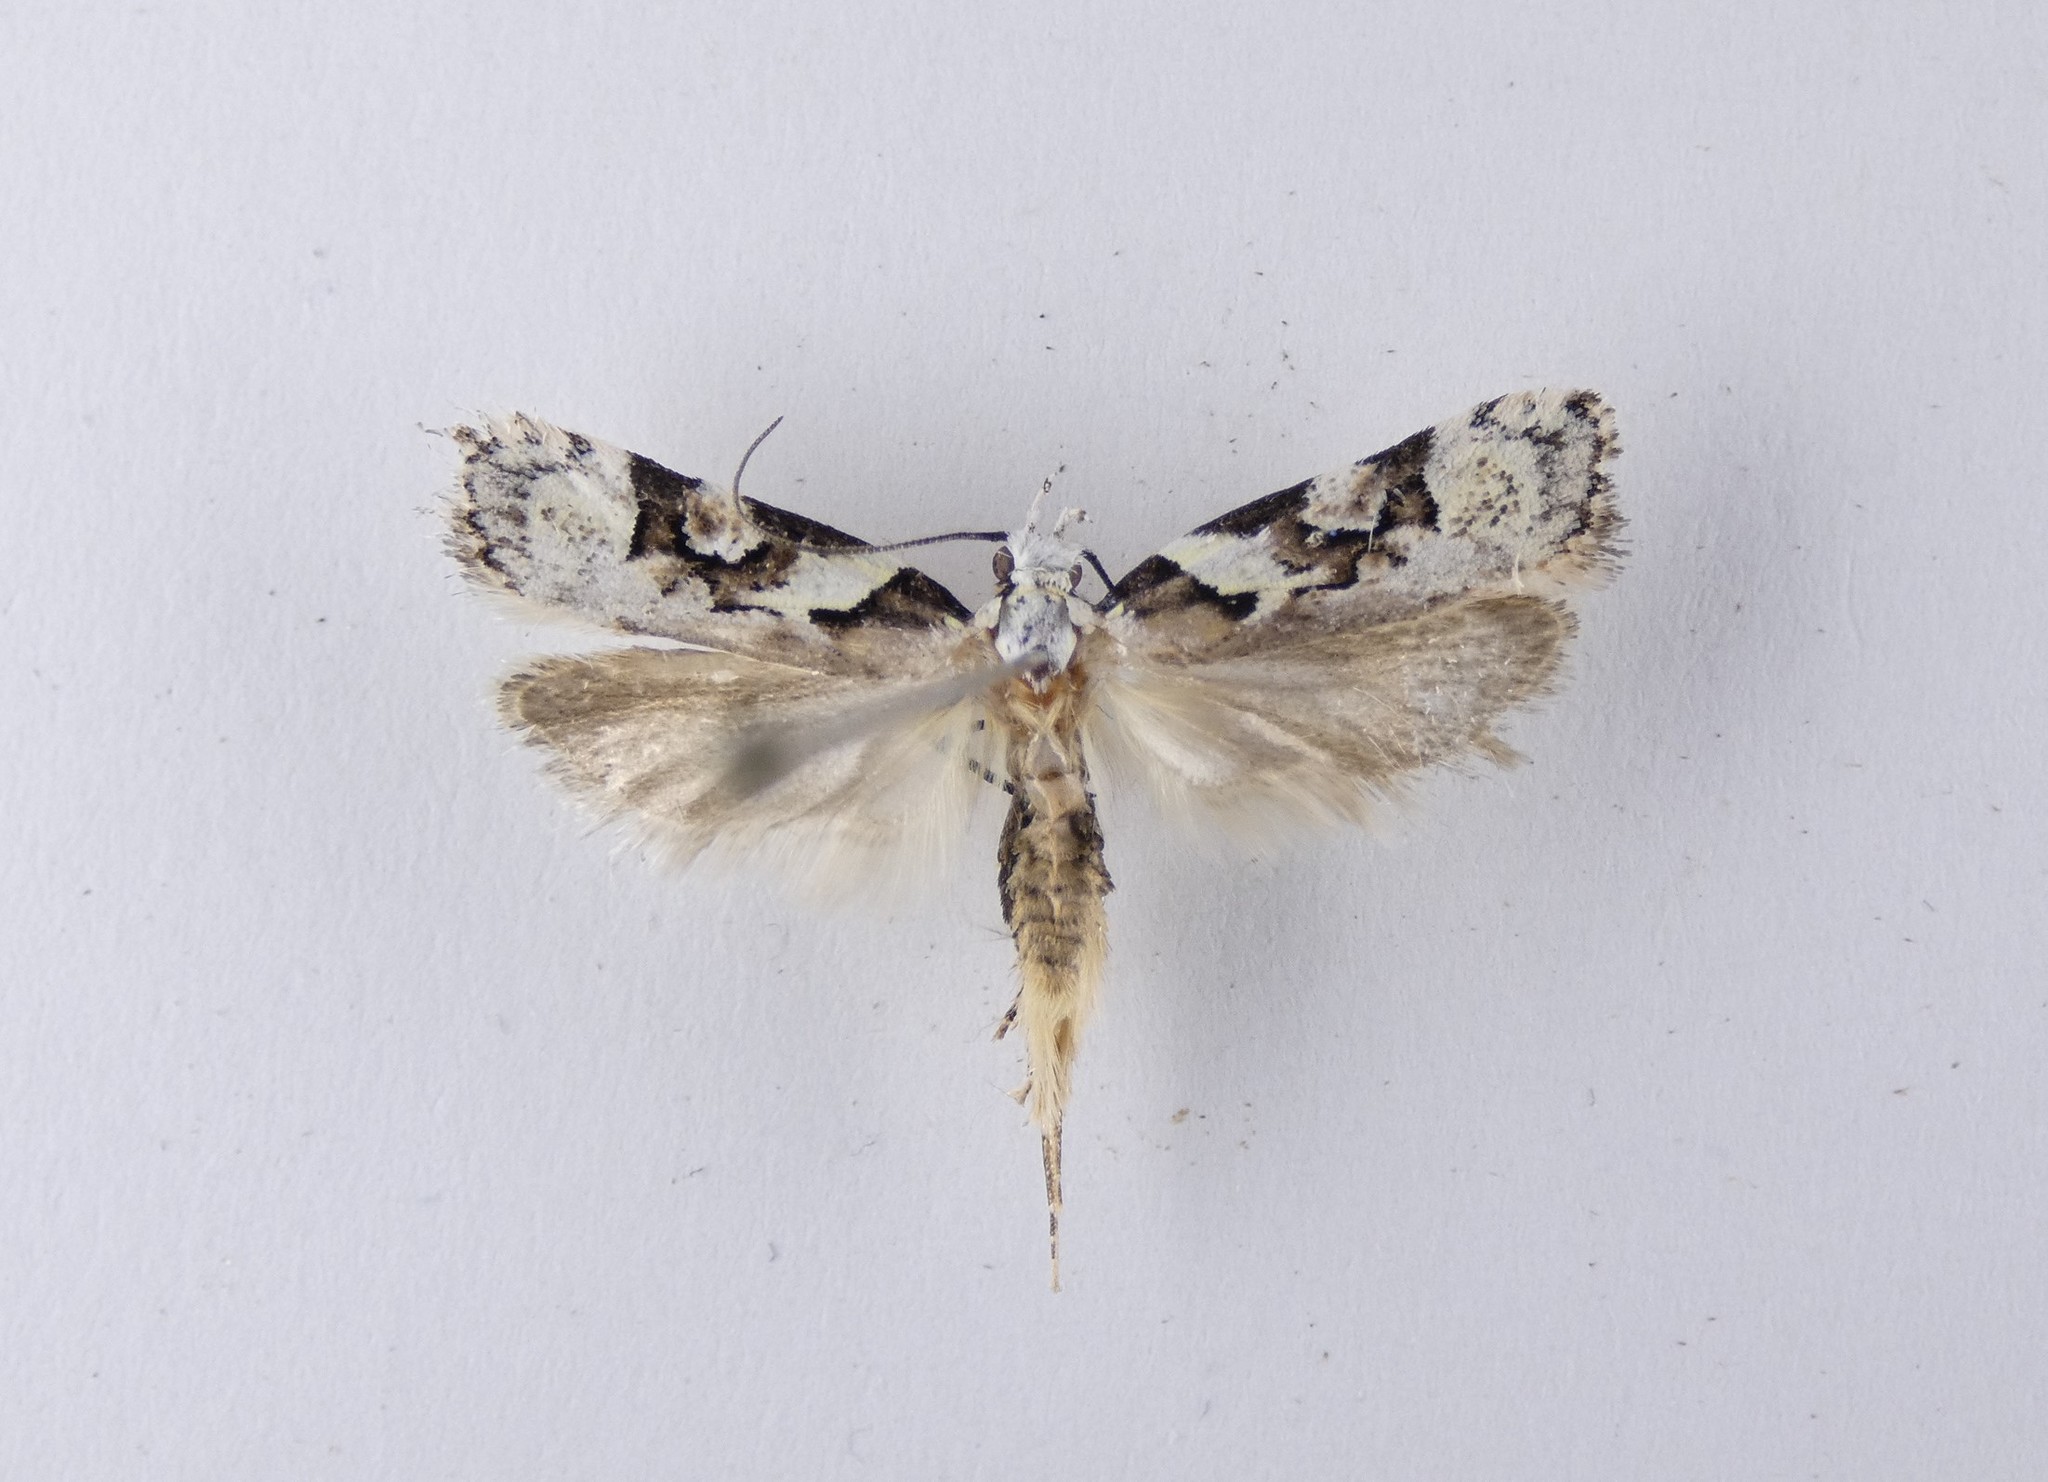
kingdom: Animalia
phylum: Arthropoda
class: Insecta
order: Lepidoptera
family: Oecophoridae
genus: Izatha
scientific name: Izatha epiphanes
